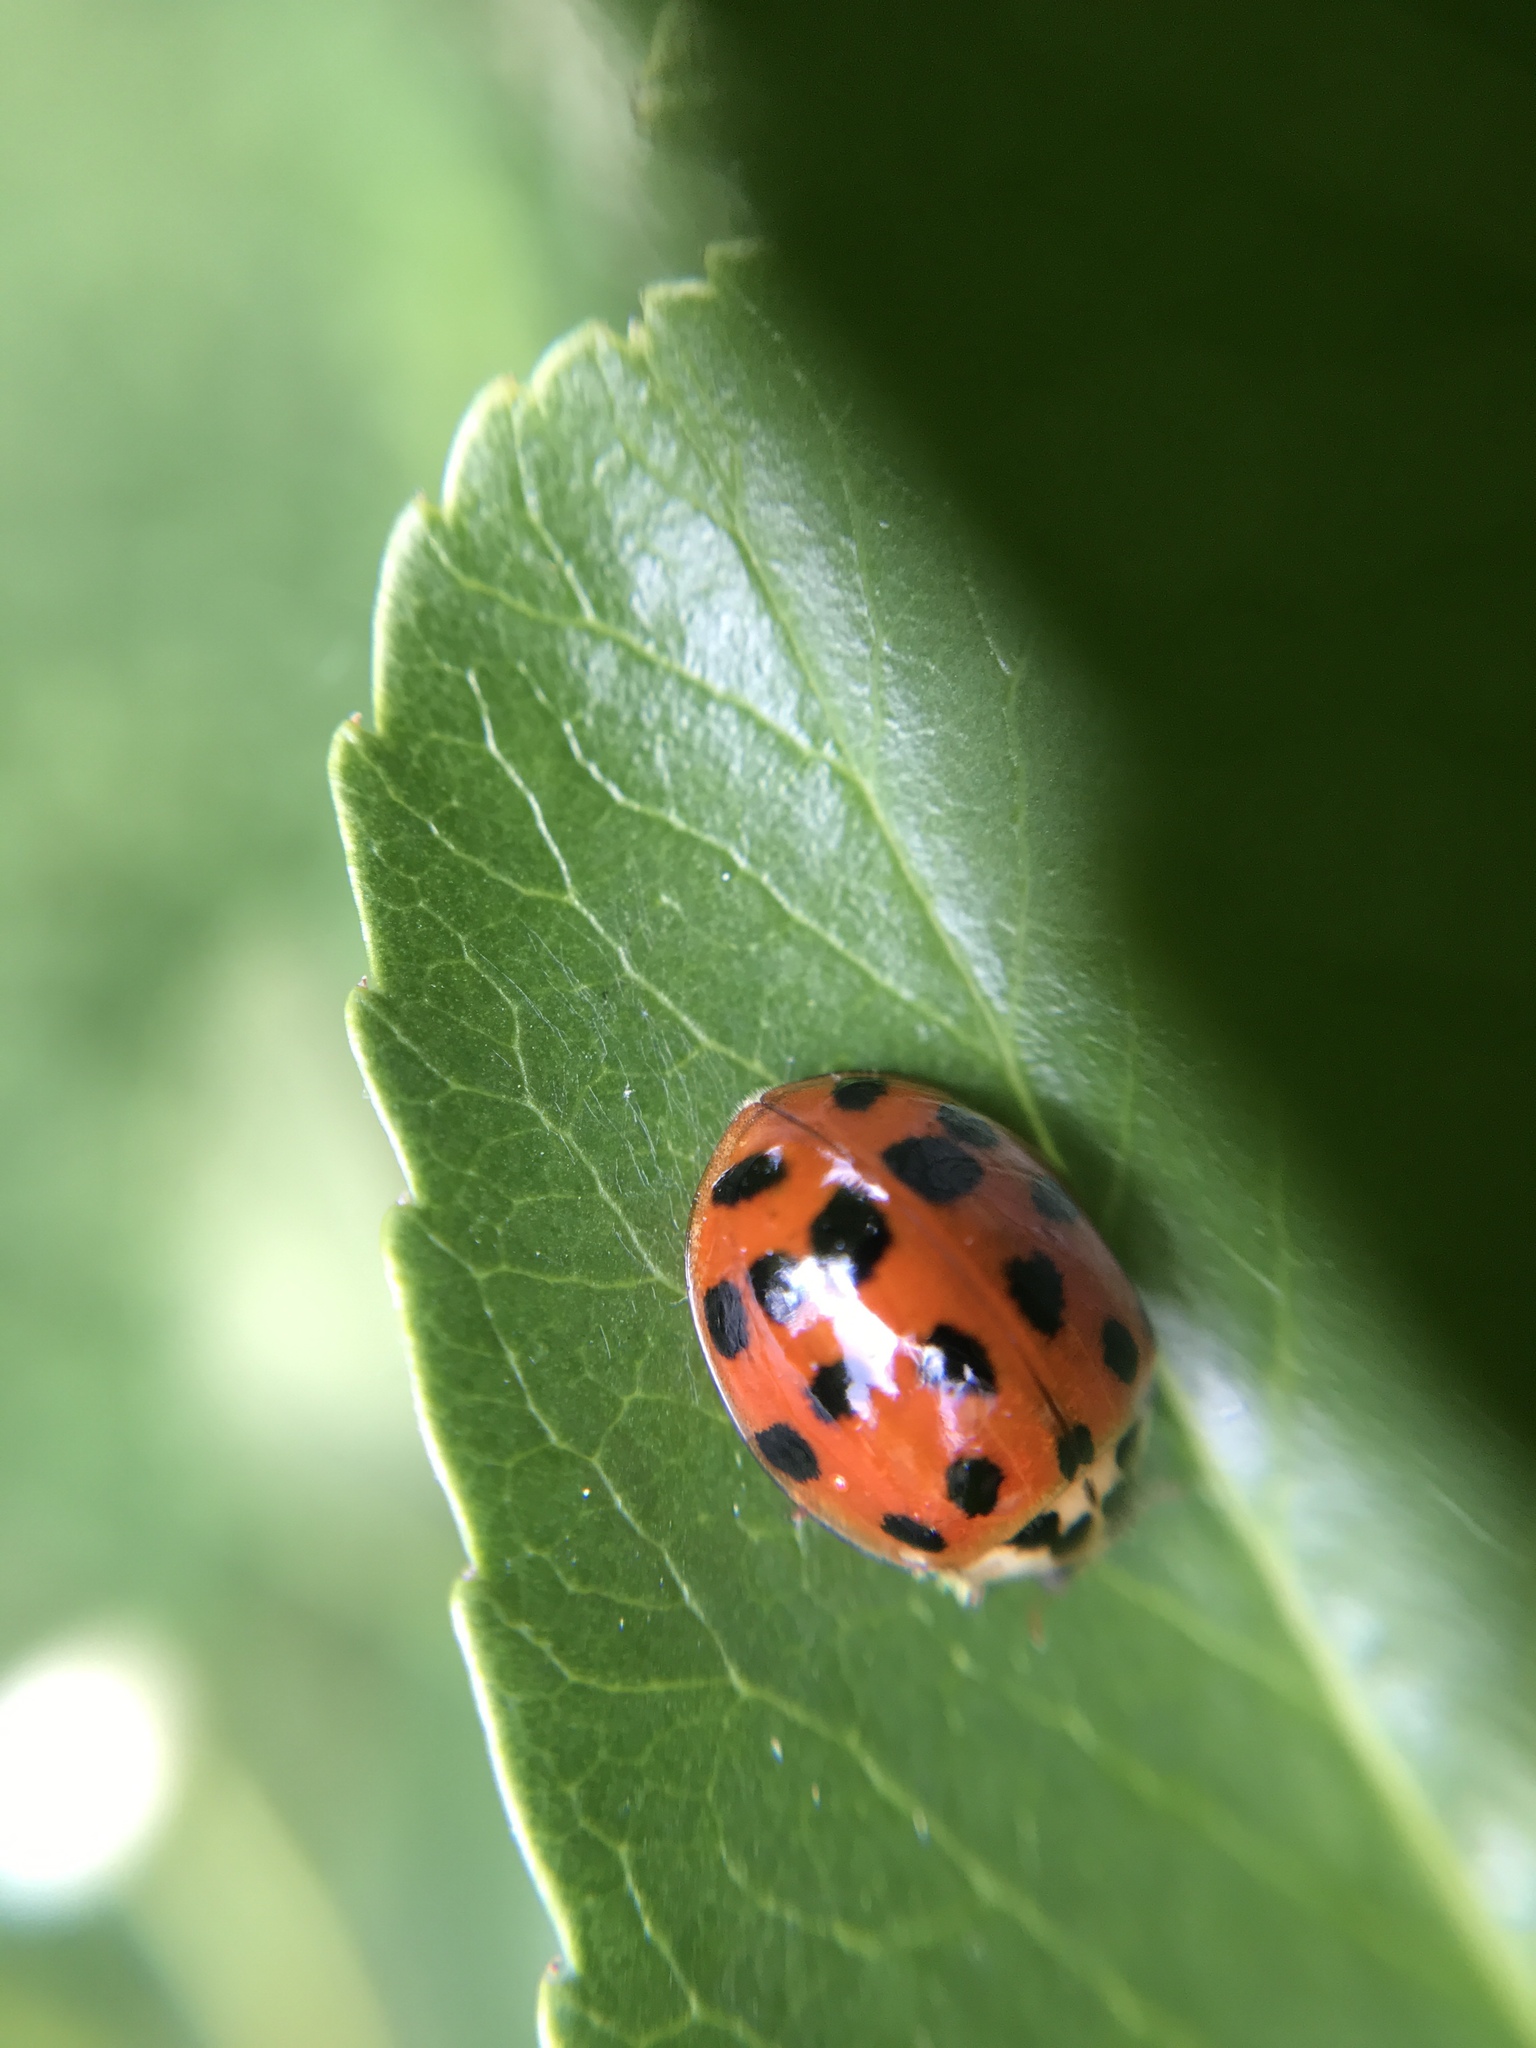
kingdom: Animalia
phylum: Arthropoda
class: Insecta
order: Coleoptera
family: Coccinellidae
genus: Harmonia
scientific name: Harmonia axyridis
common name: Harlequin ladybird
